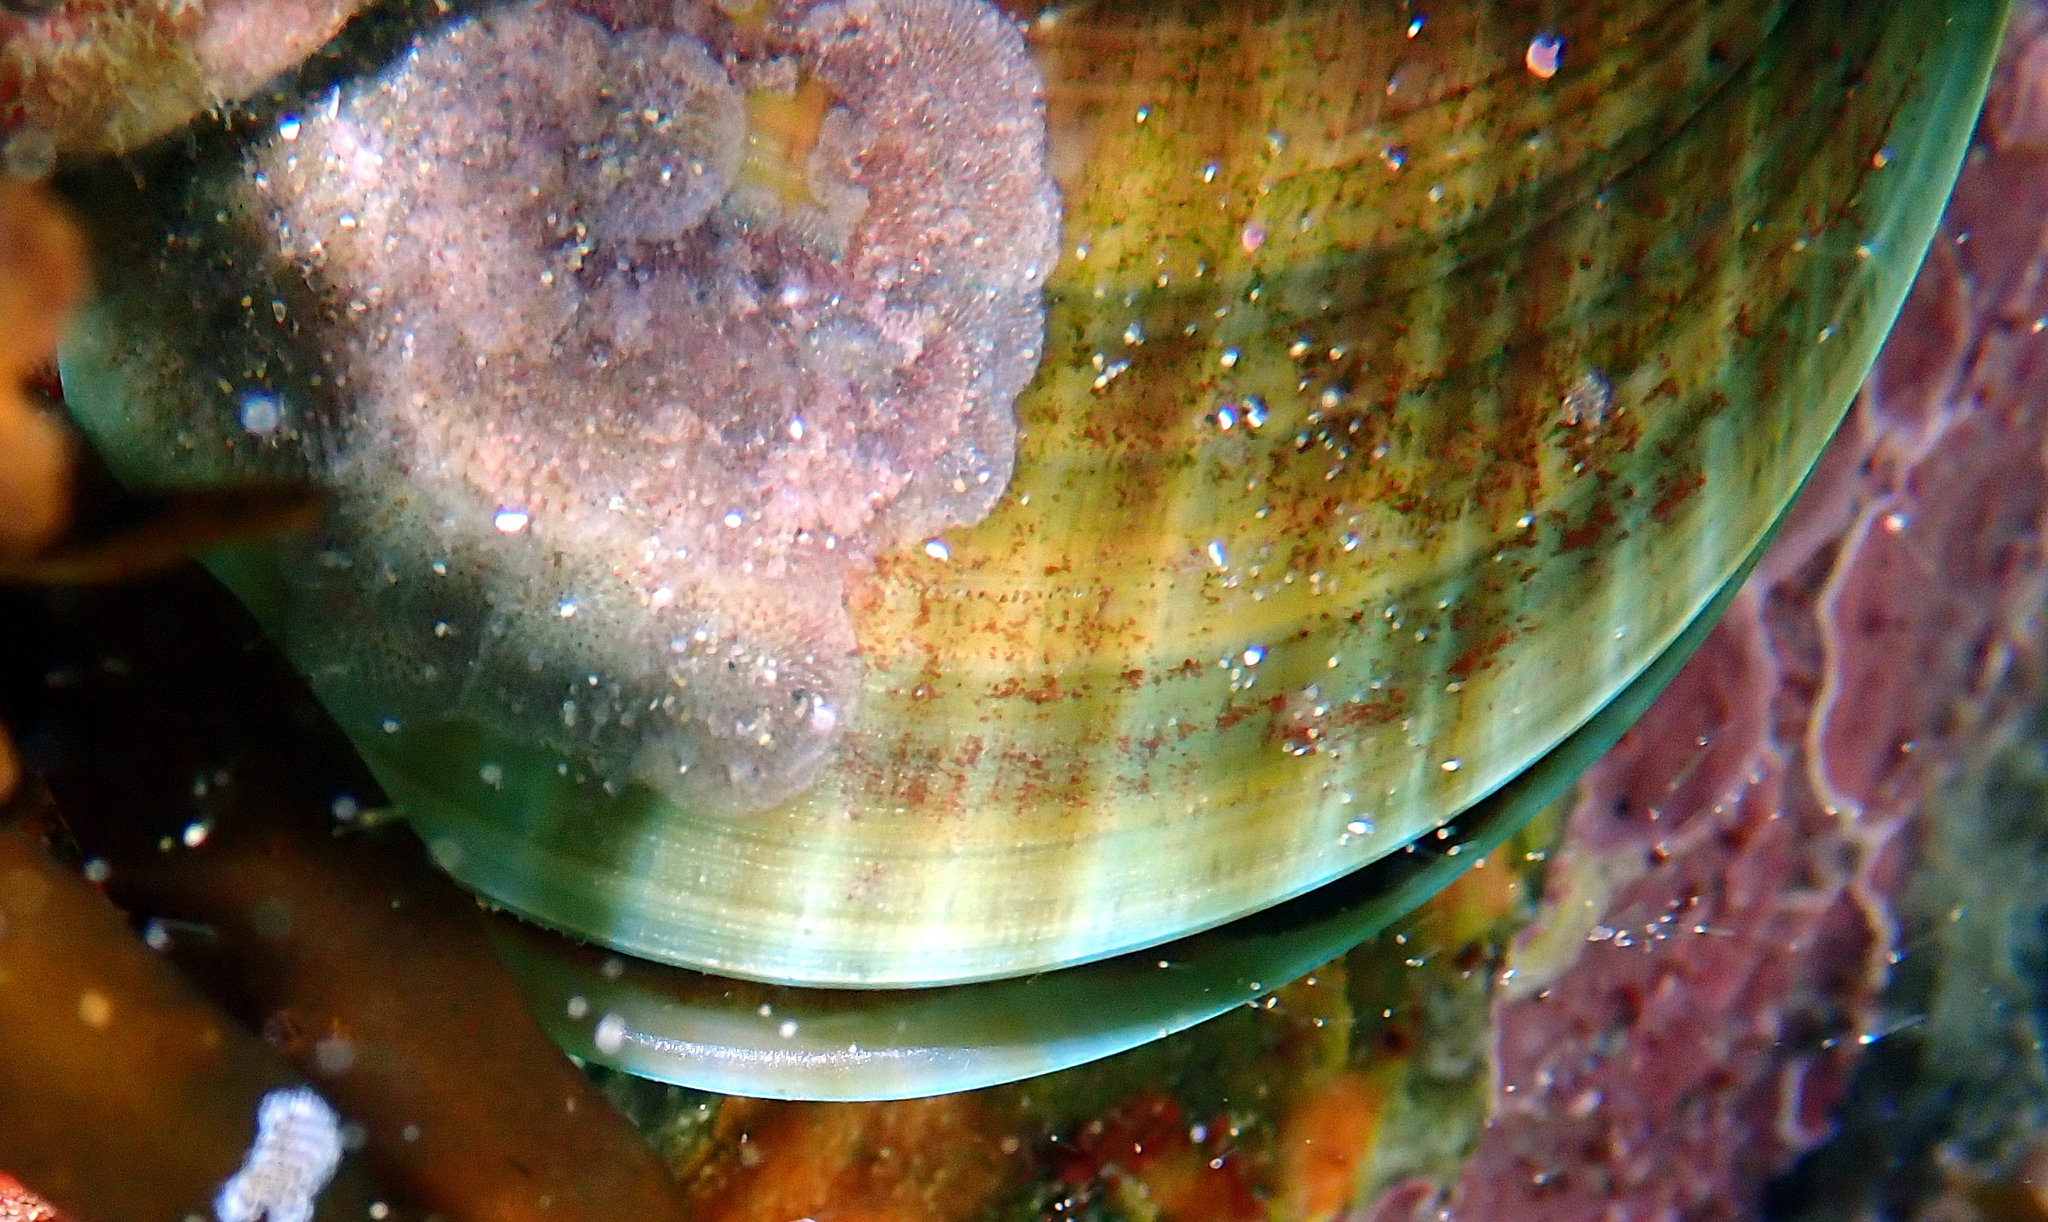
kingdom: Animalia
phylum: Mollusca
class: Bivalvia
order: Mytilida
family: Mytilidae
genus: Perna
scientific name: Perna canaliculus
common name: New zealand greenshelltm
